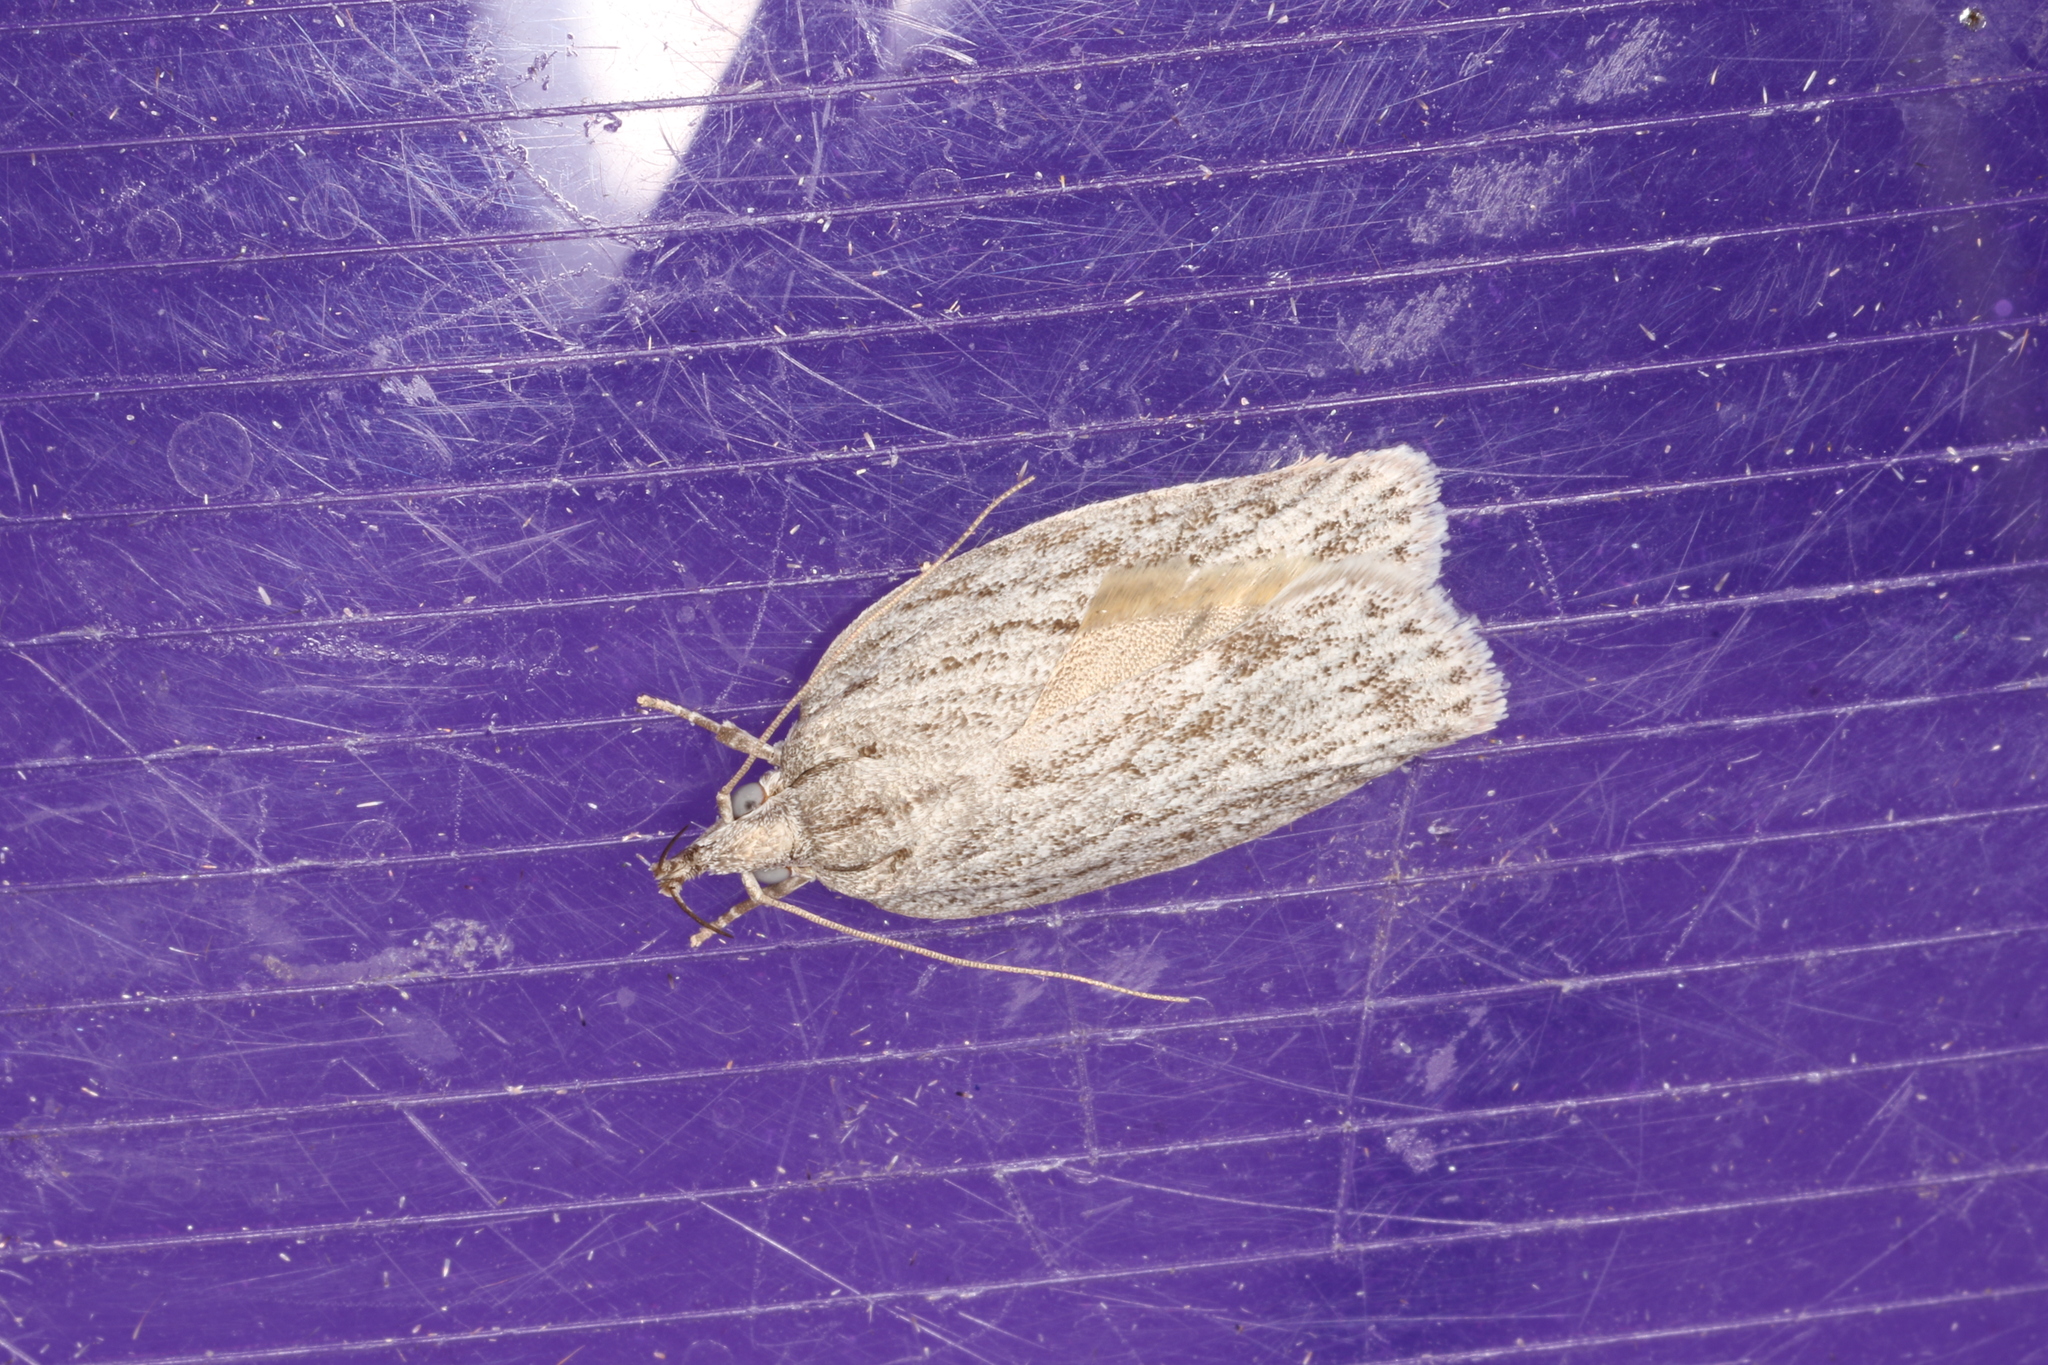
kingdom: Animalia
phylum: Arthropoda
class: Insecta
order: Lepidoptera
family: Depressariidae
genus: Pedois
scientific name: Pedois lewinella
